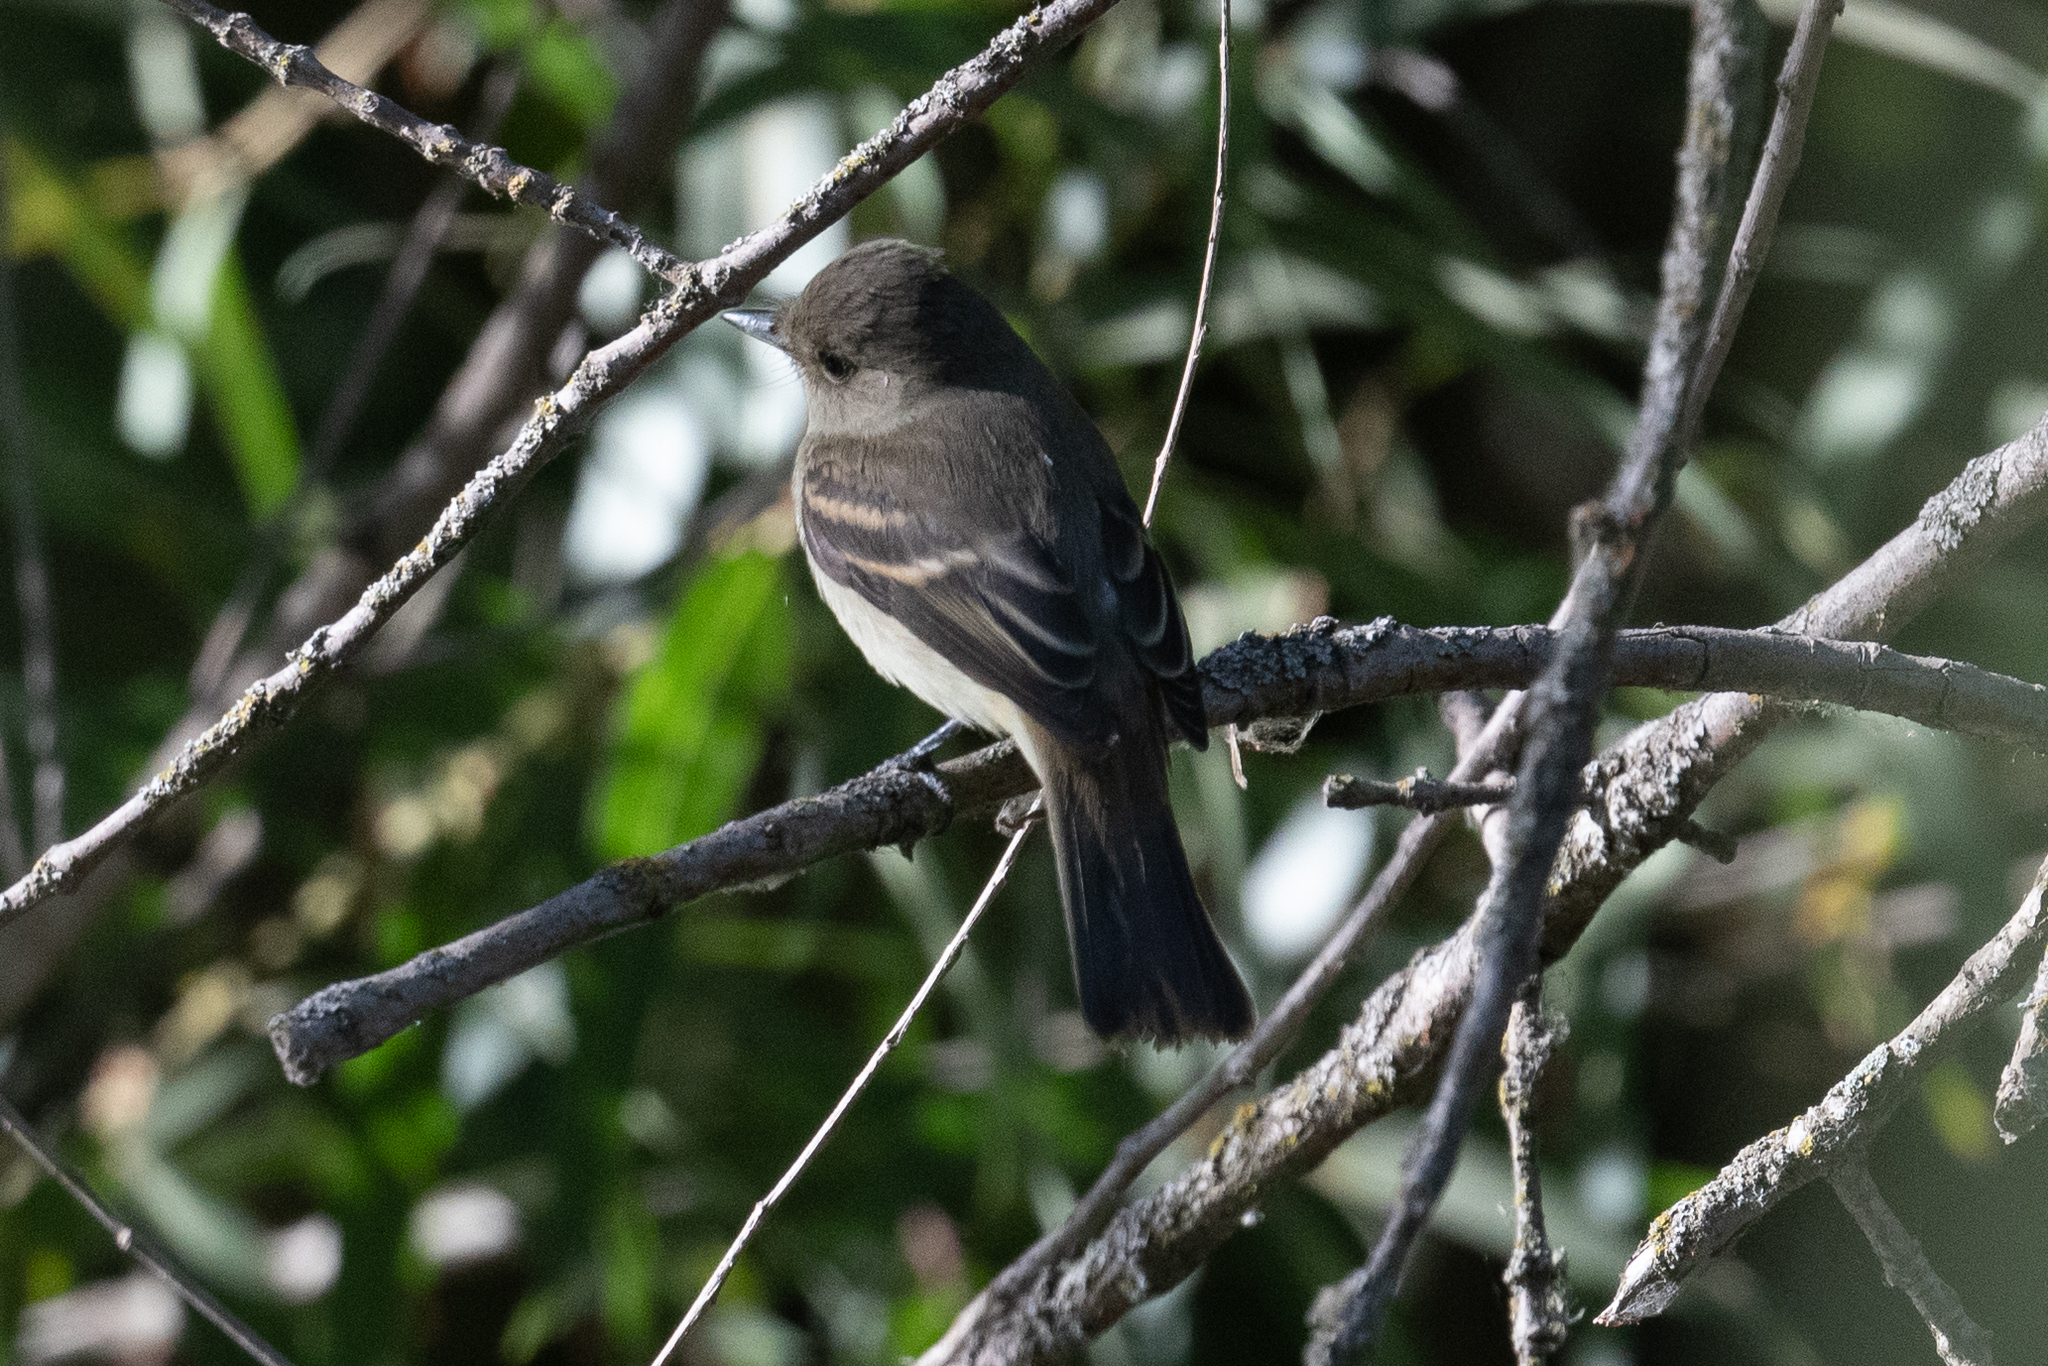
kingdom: Animalia
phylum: Chordata
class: Aves
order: Passeriformes
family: Tyrannidae
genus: Empidonax
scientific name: Empidonax traillii
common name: Willow flycatcher
